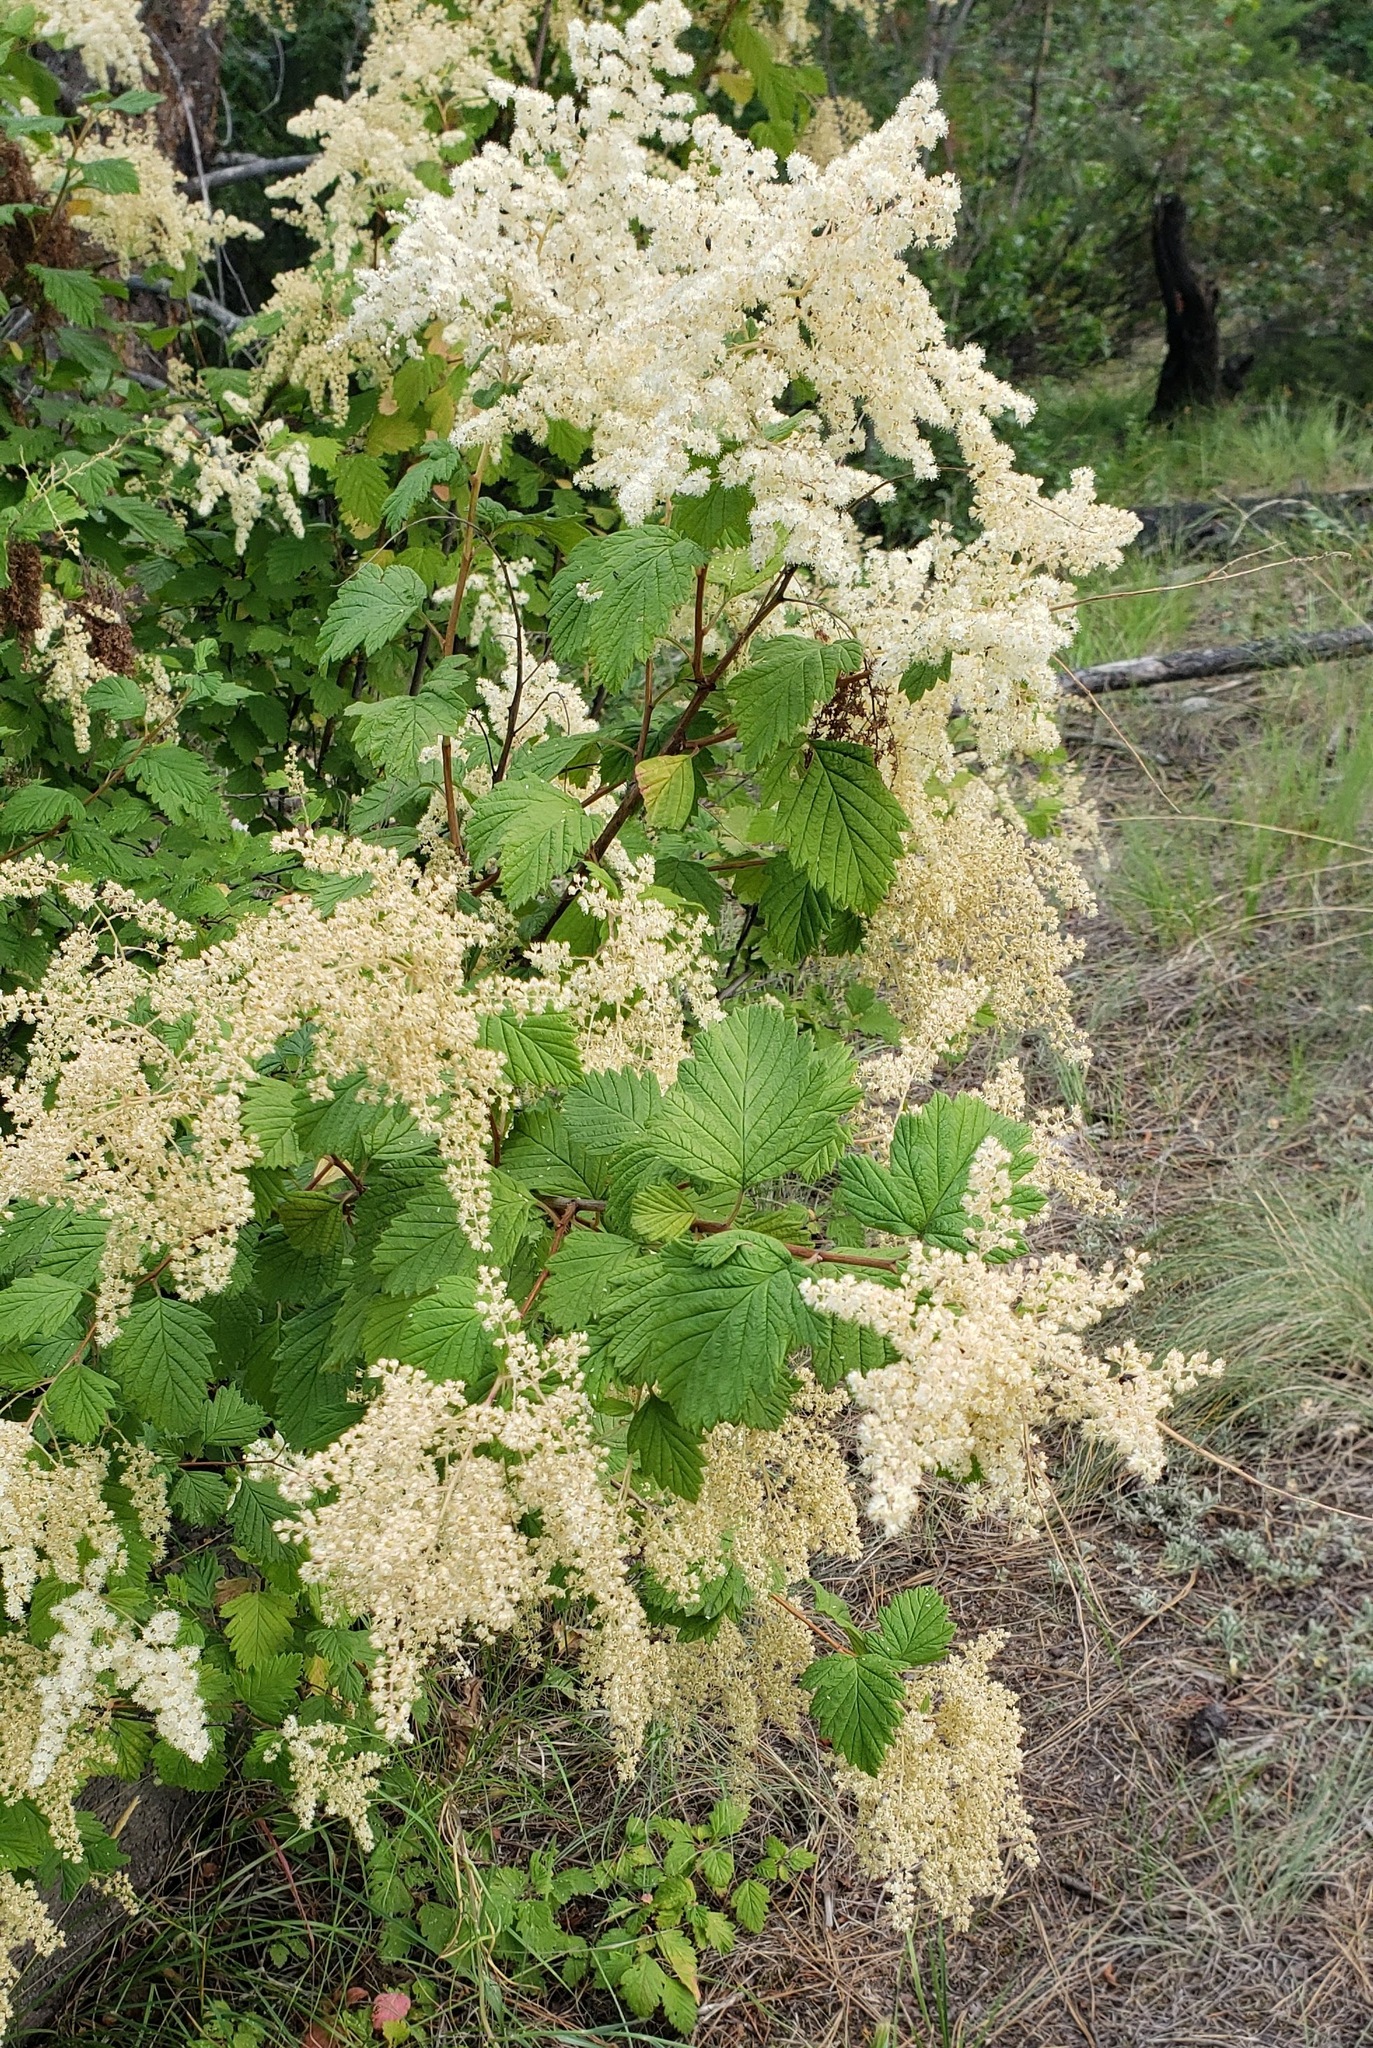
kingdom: Plantae
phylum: Tracheophyta
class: Magnoliopsida
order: Rosales
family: Rosaceae
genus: Holodiscus
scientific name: Holodiscus discolor
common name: Oceanspray
